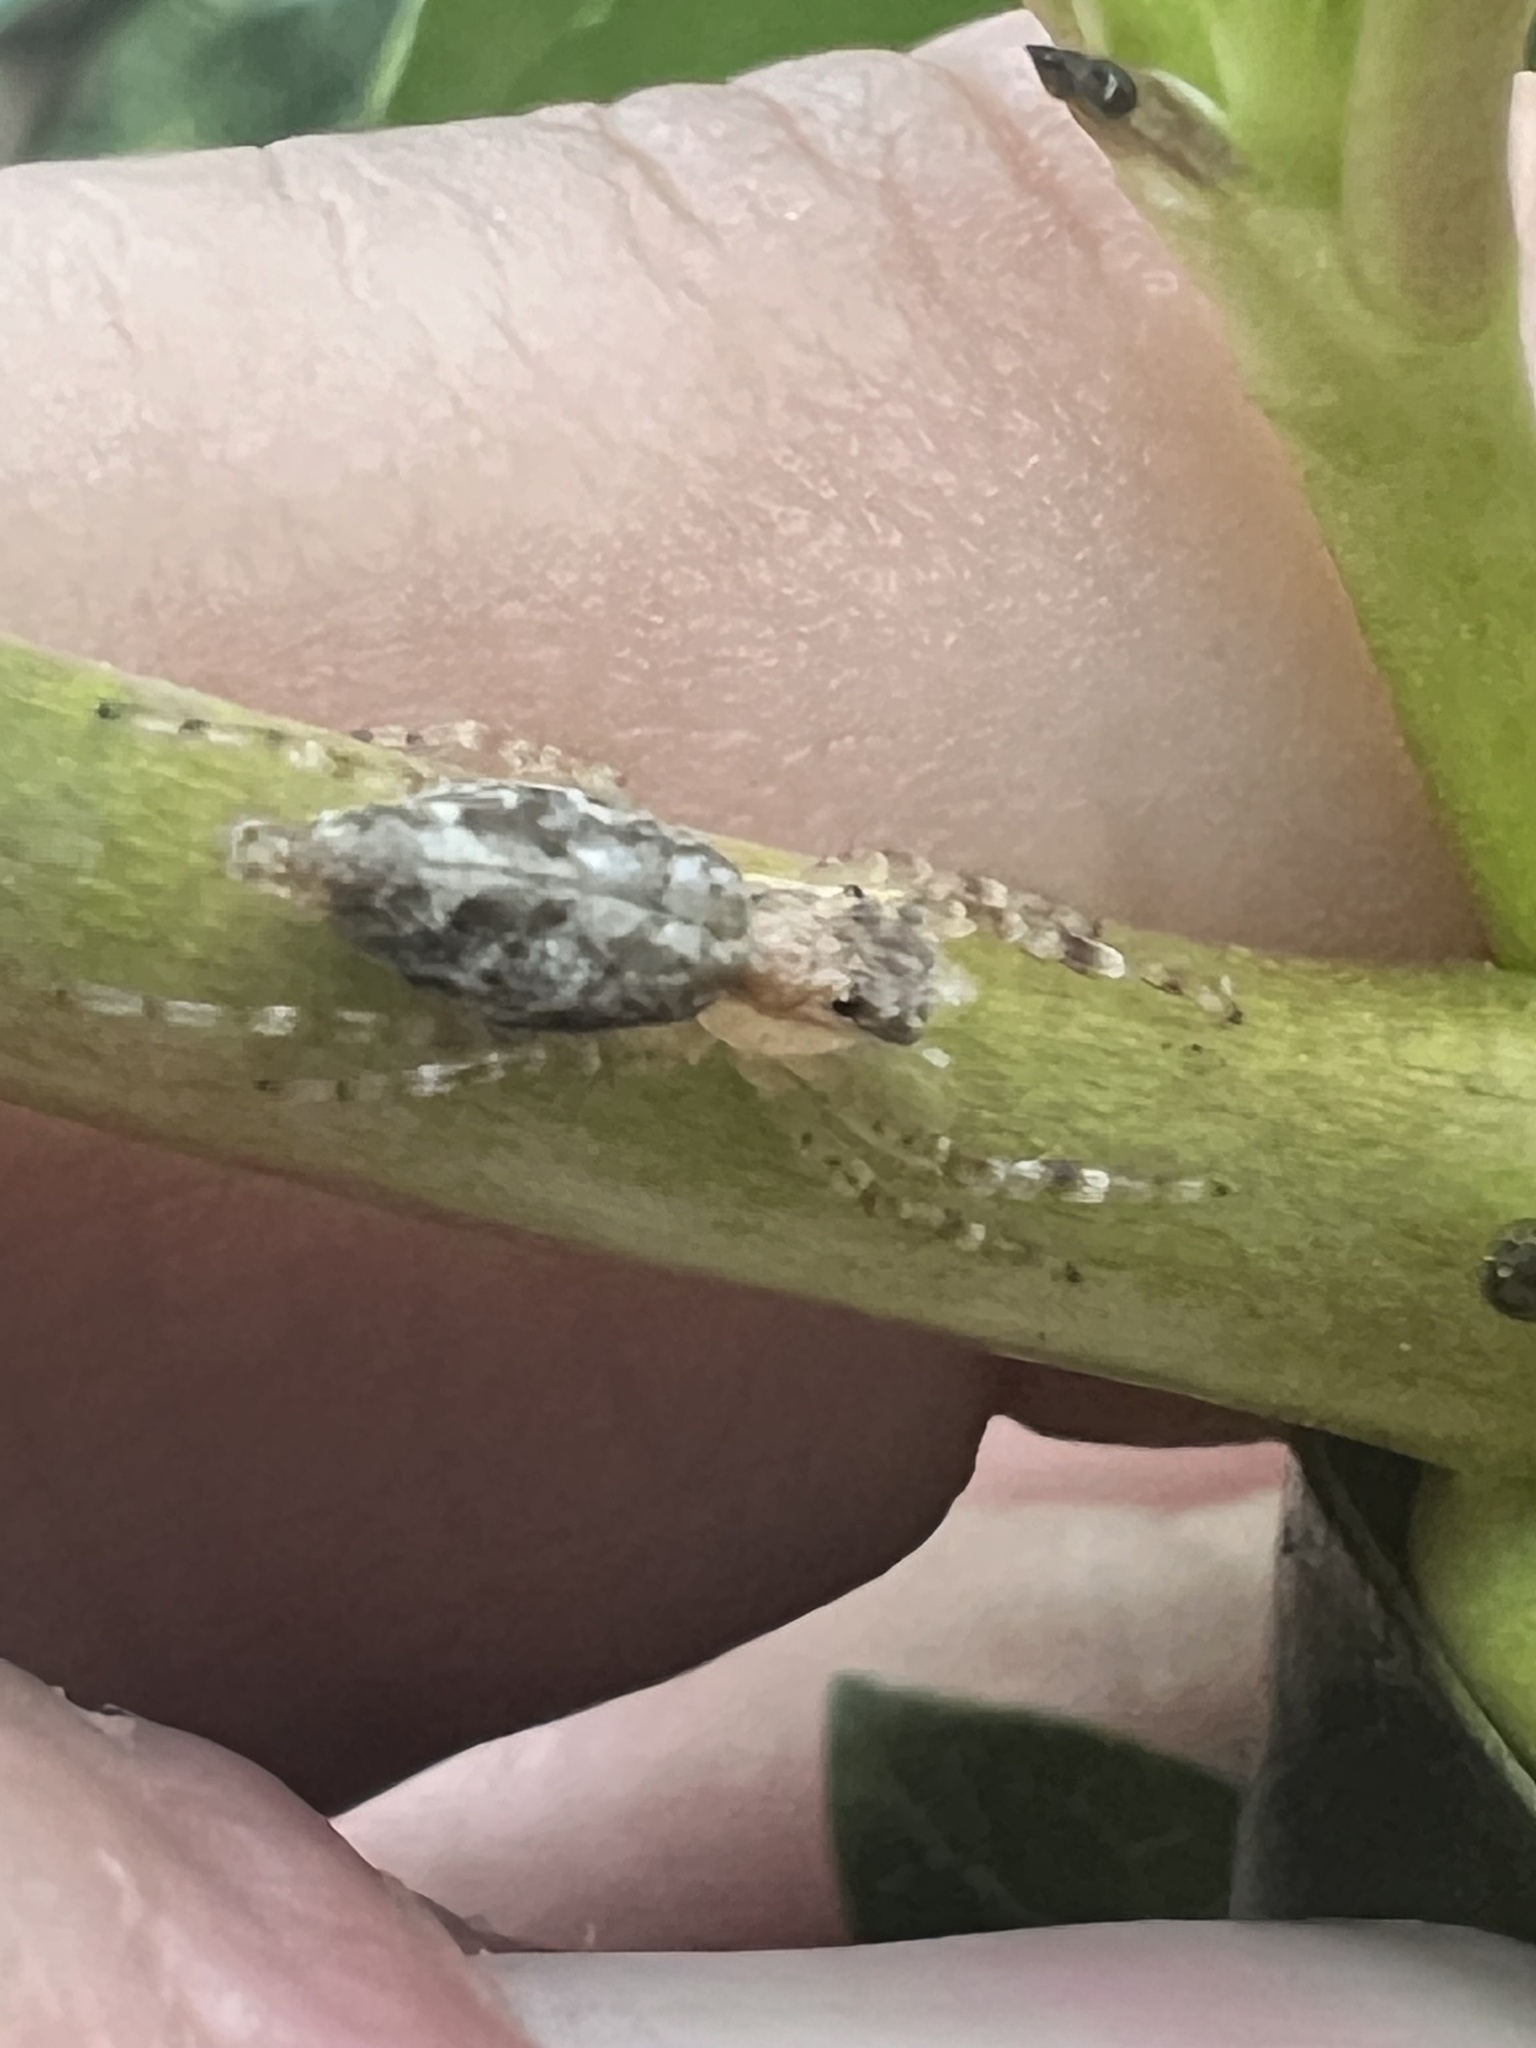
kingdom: Animalia
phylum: Arthropoda
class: Arachnida
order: Araneae
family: Salticidae
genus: Helpis
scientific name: Helpis minitabunda
